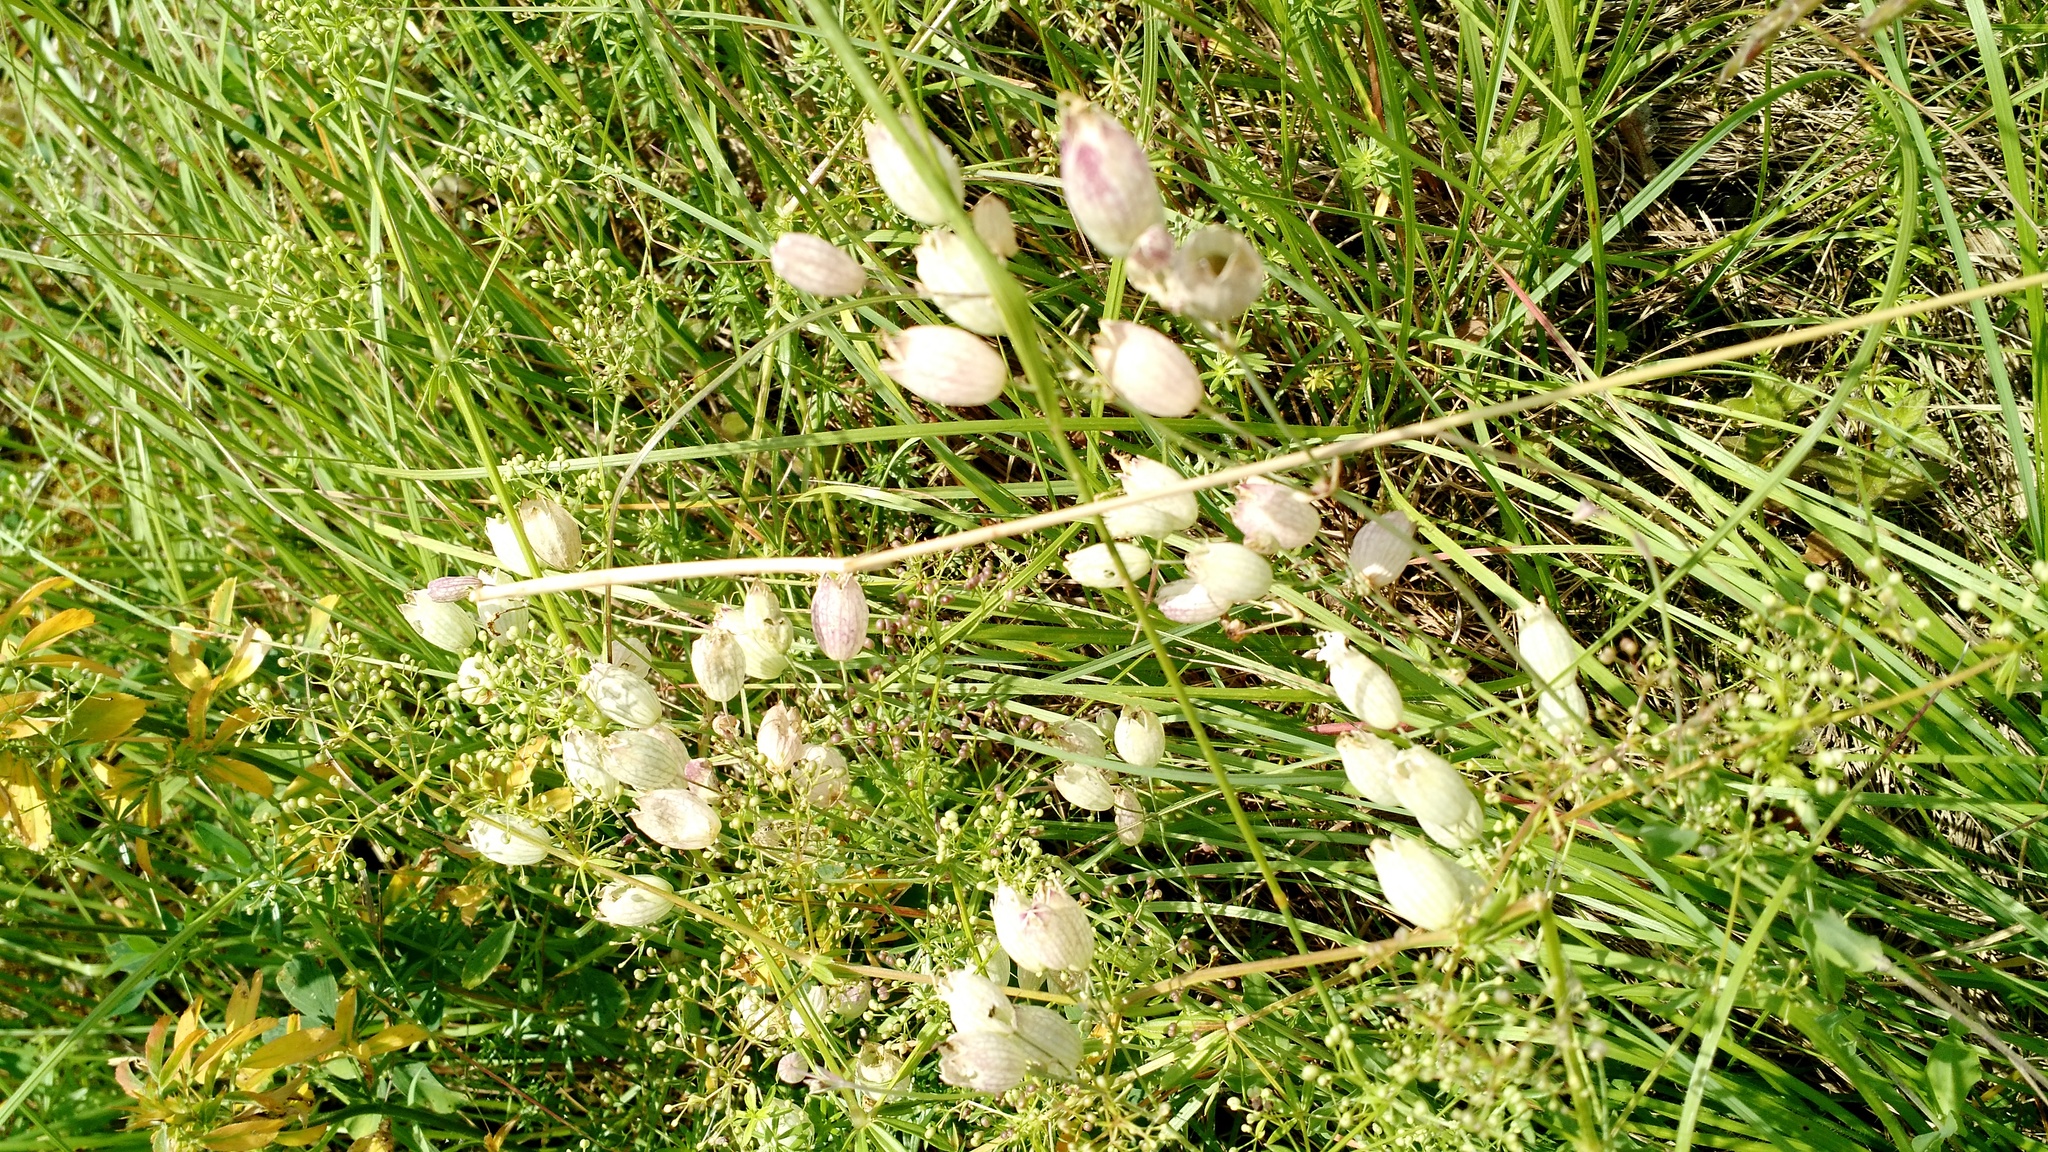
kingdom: Plantae
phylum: Tracheophyta
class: Magnoliopsida
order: Caryophyllales
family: Caryophyllaceae
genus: Silene
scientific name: Silene vulgaris
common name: Bladder campion
